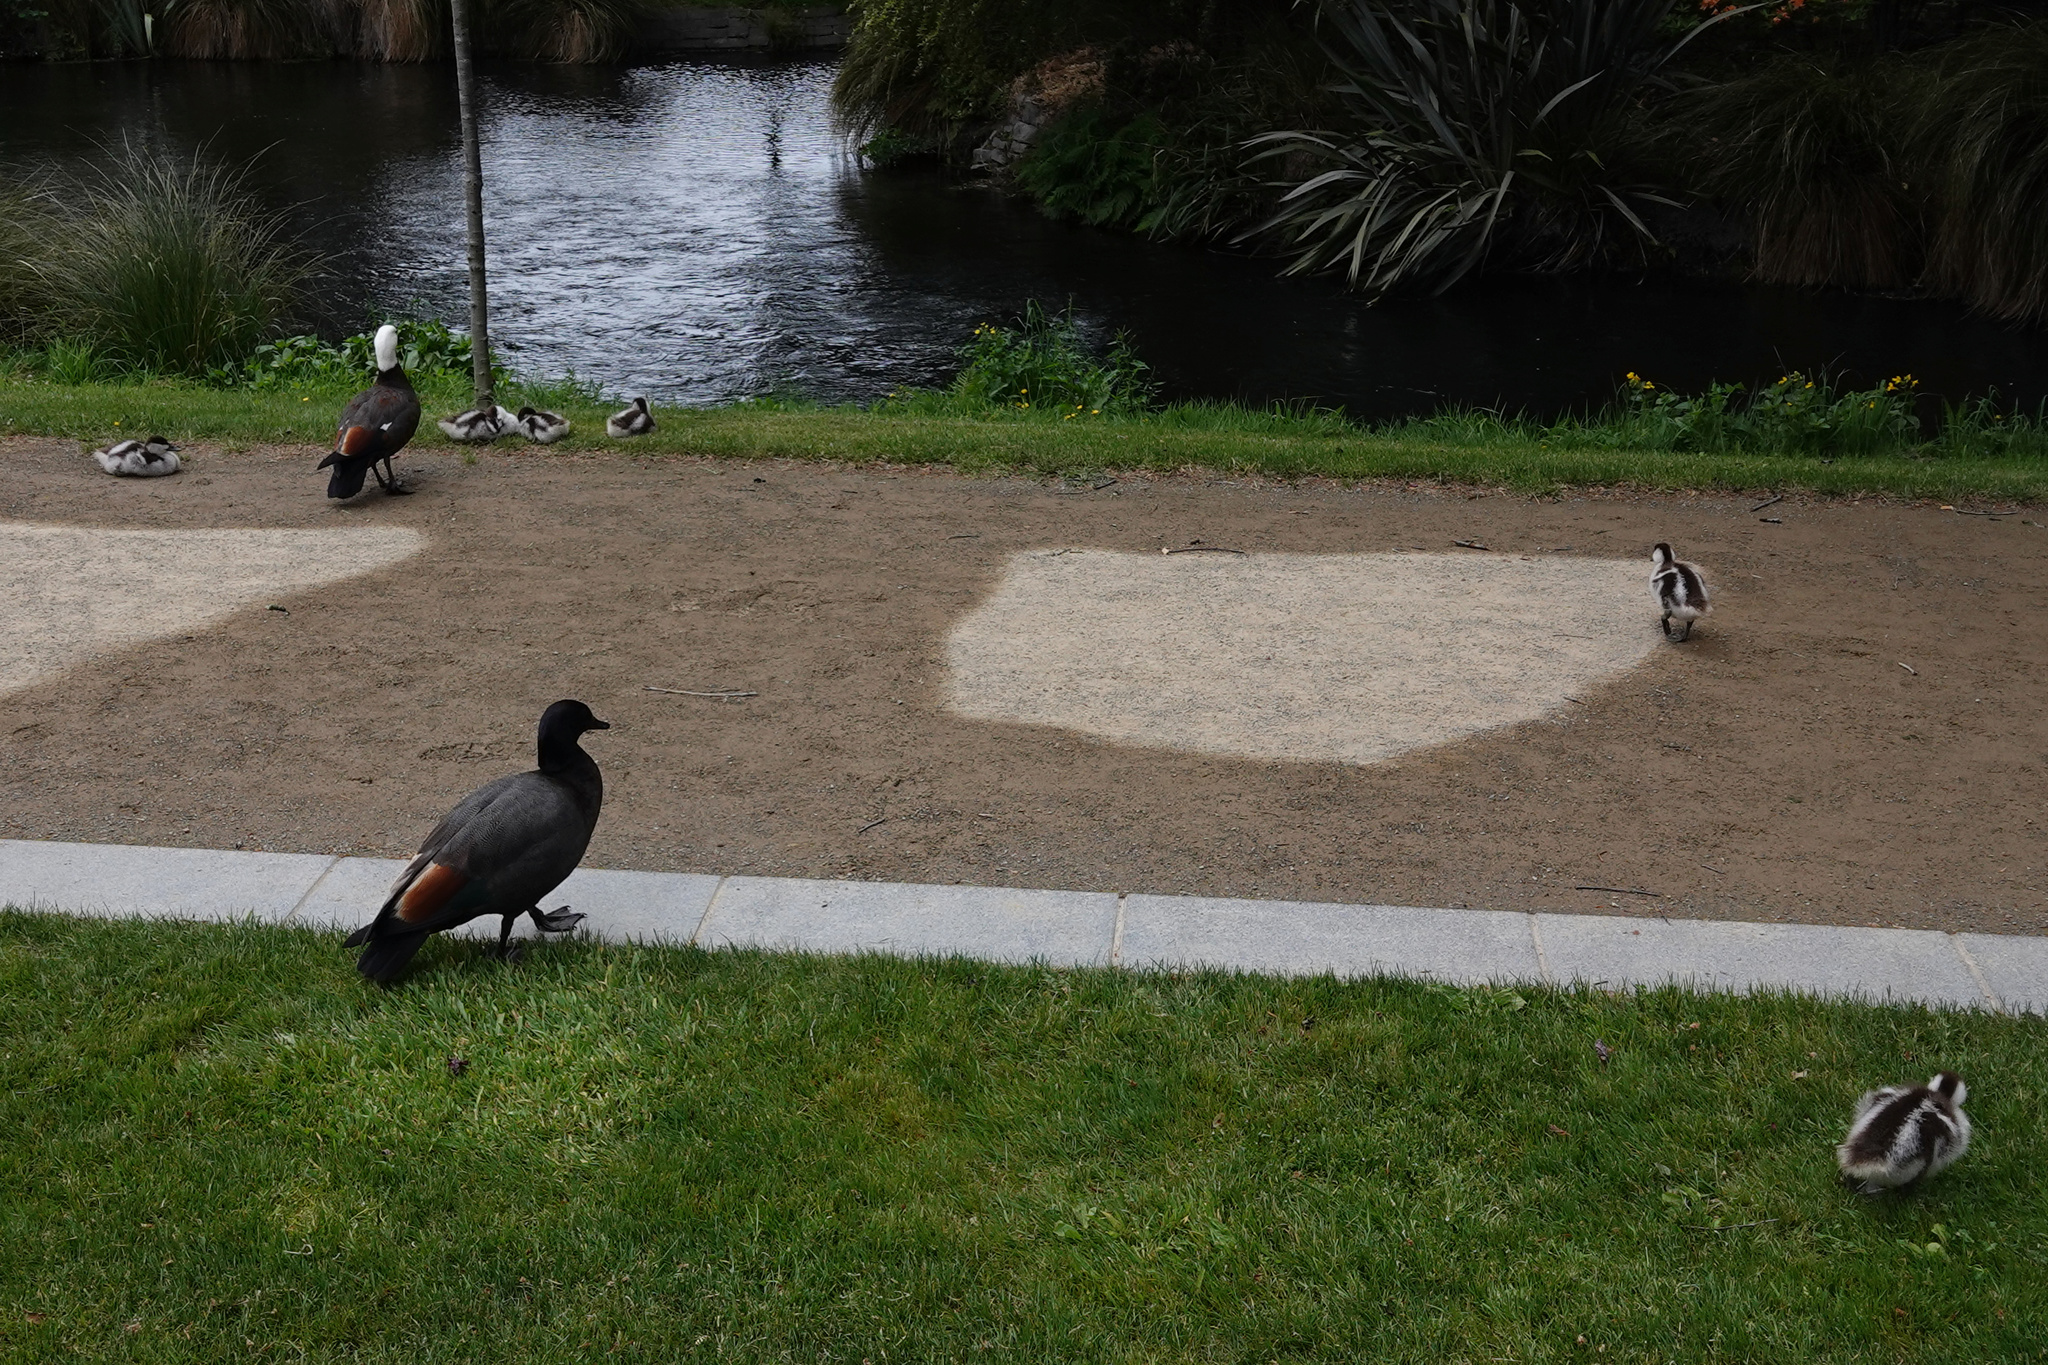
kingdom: Animalia
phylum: Chordata
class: Aves
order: Anseriformes
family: Anatidae
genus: Tadorna
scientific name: Tadorna variegata
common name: Paradise shelduck
